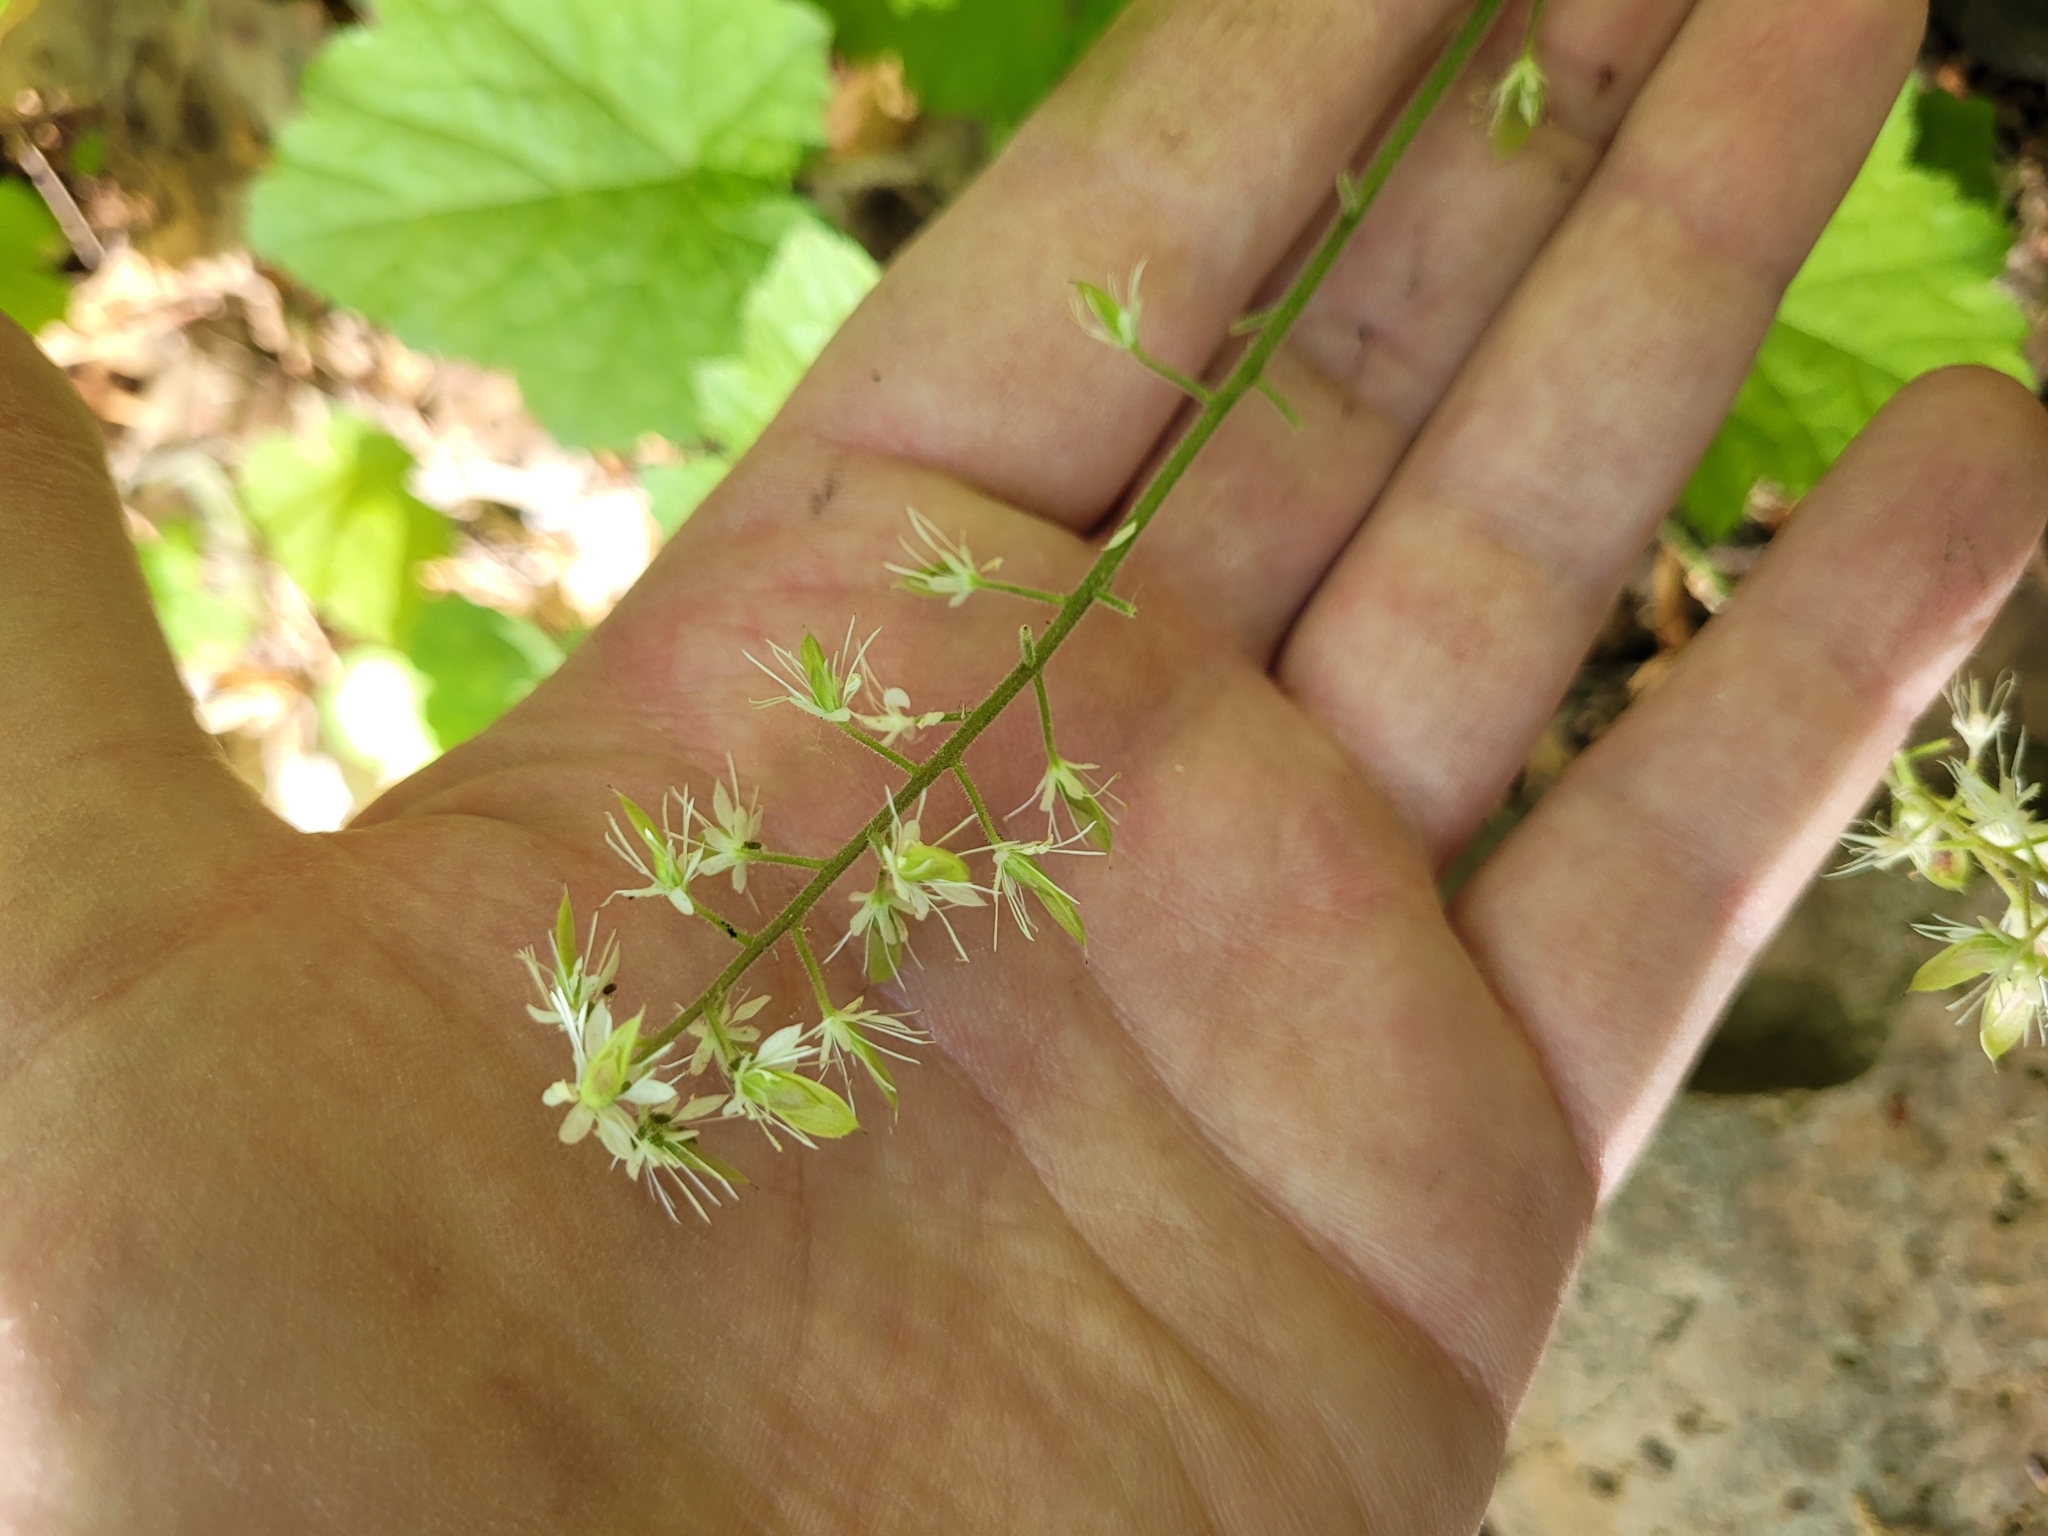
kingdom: Plantae
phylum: Tracheophyta
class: Magnoliopsida
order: Saxifragales
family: Saxifragaceae
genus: Tiarella
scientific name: Tiarella stolonifera
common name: Stoloniferous foamflower
